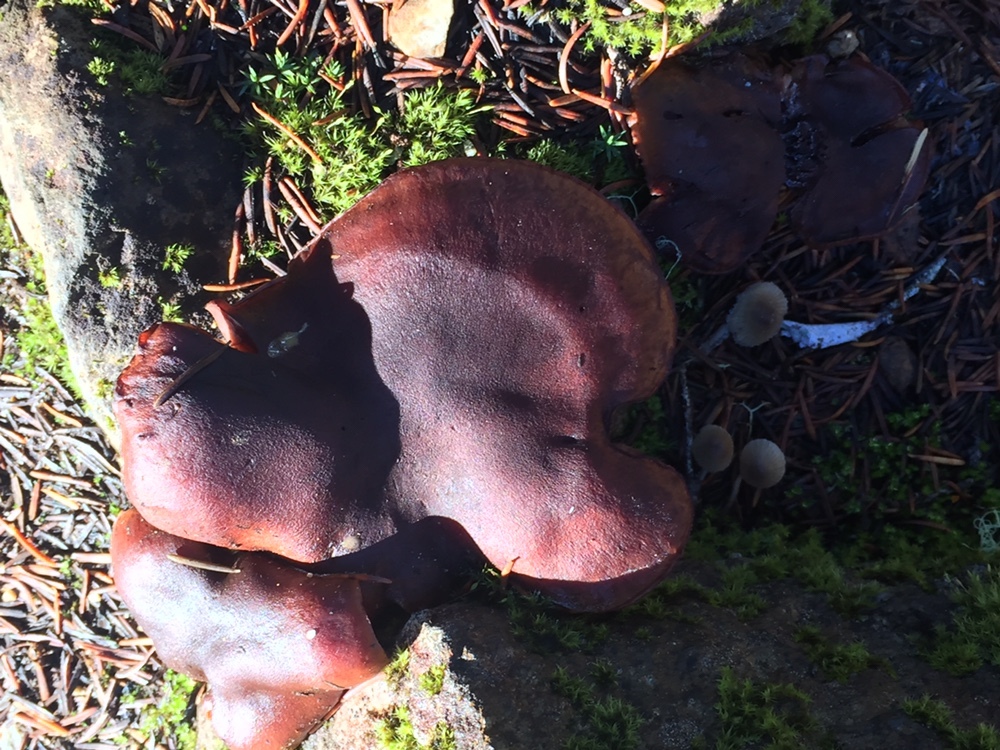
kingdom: Fungi
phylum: Basidiomycota
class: Agaricomycetes
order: Agaricales
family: Cortinariaceae
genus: Cortinarius
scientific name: Cortinarius smithii
